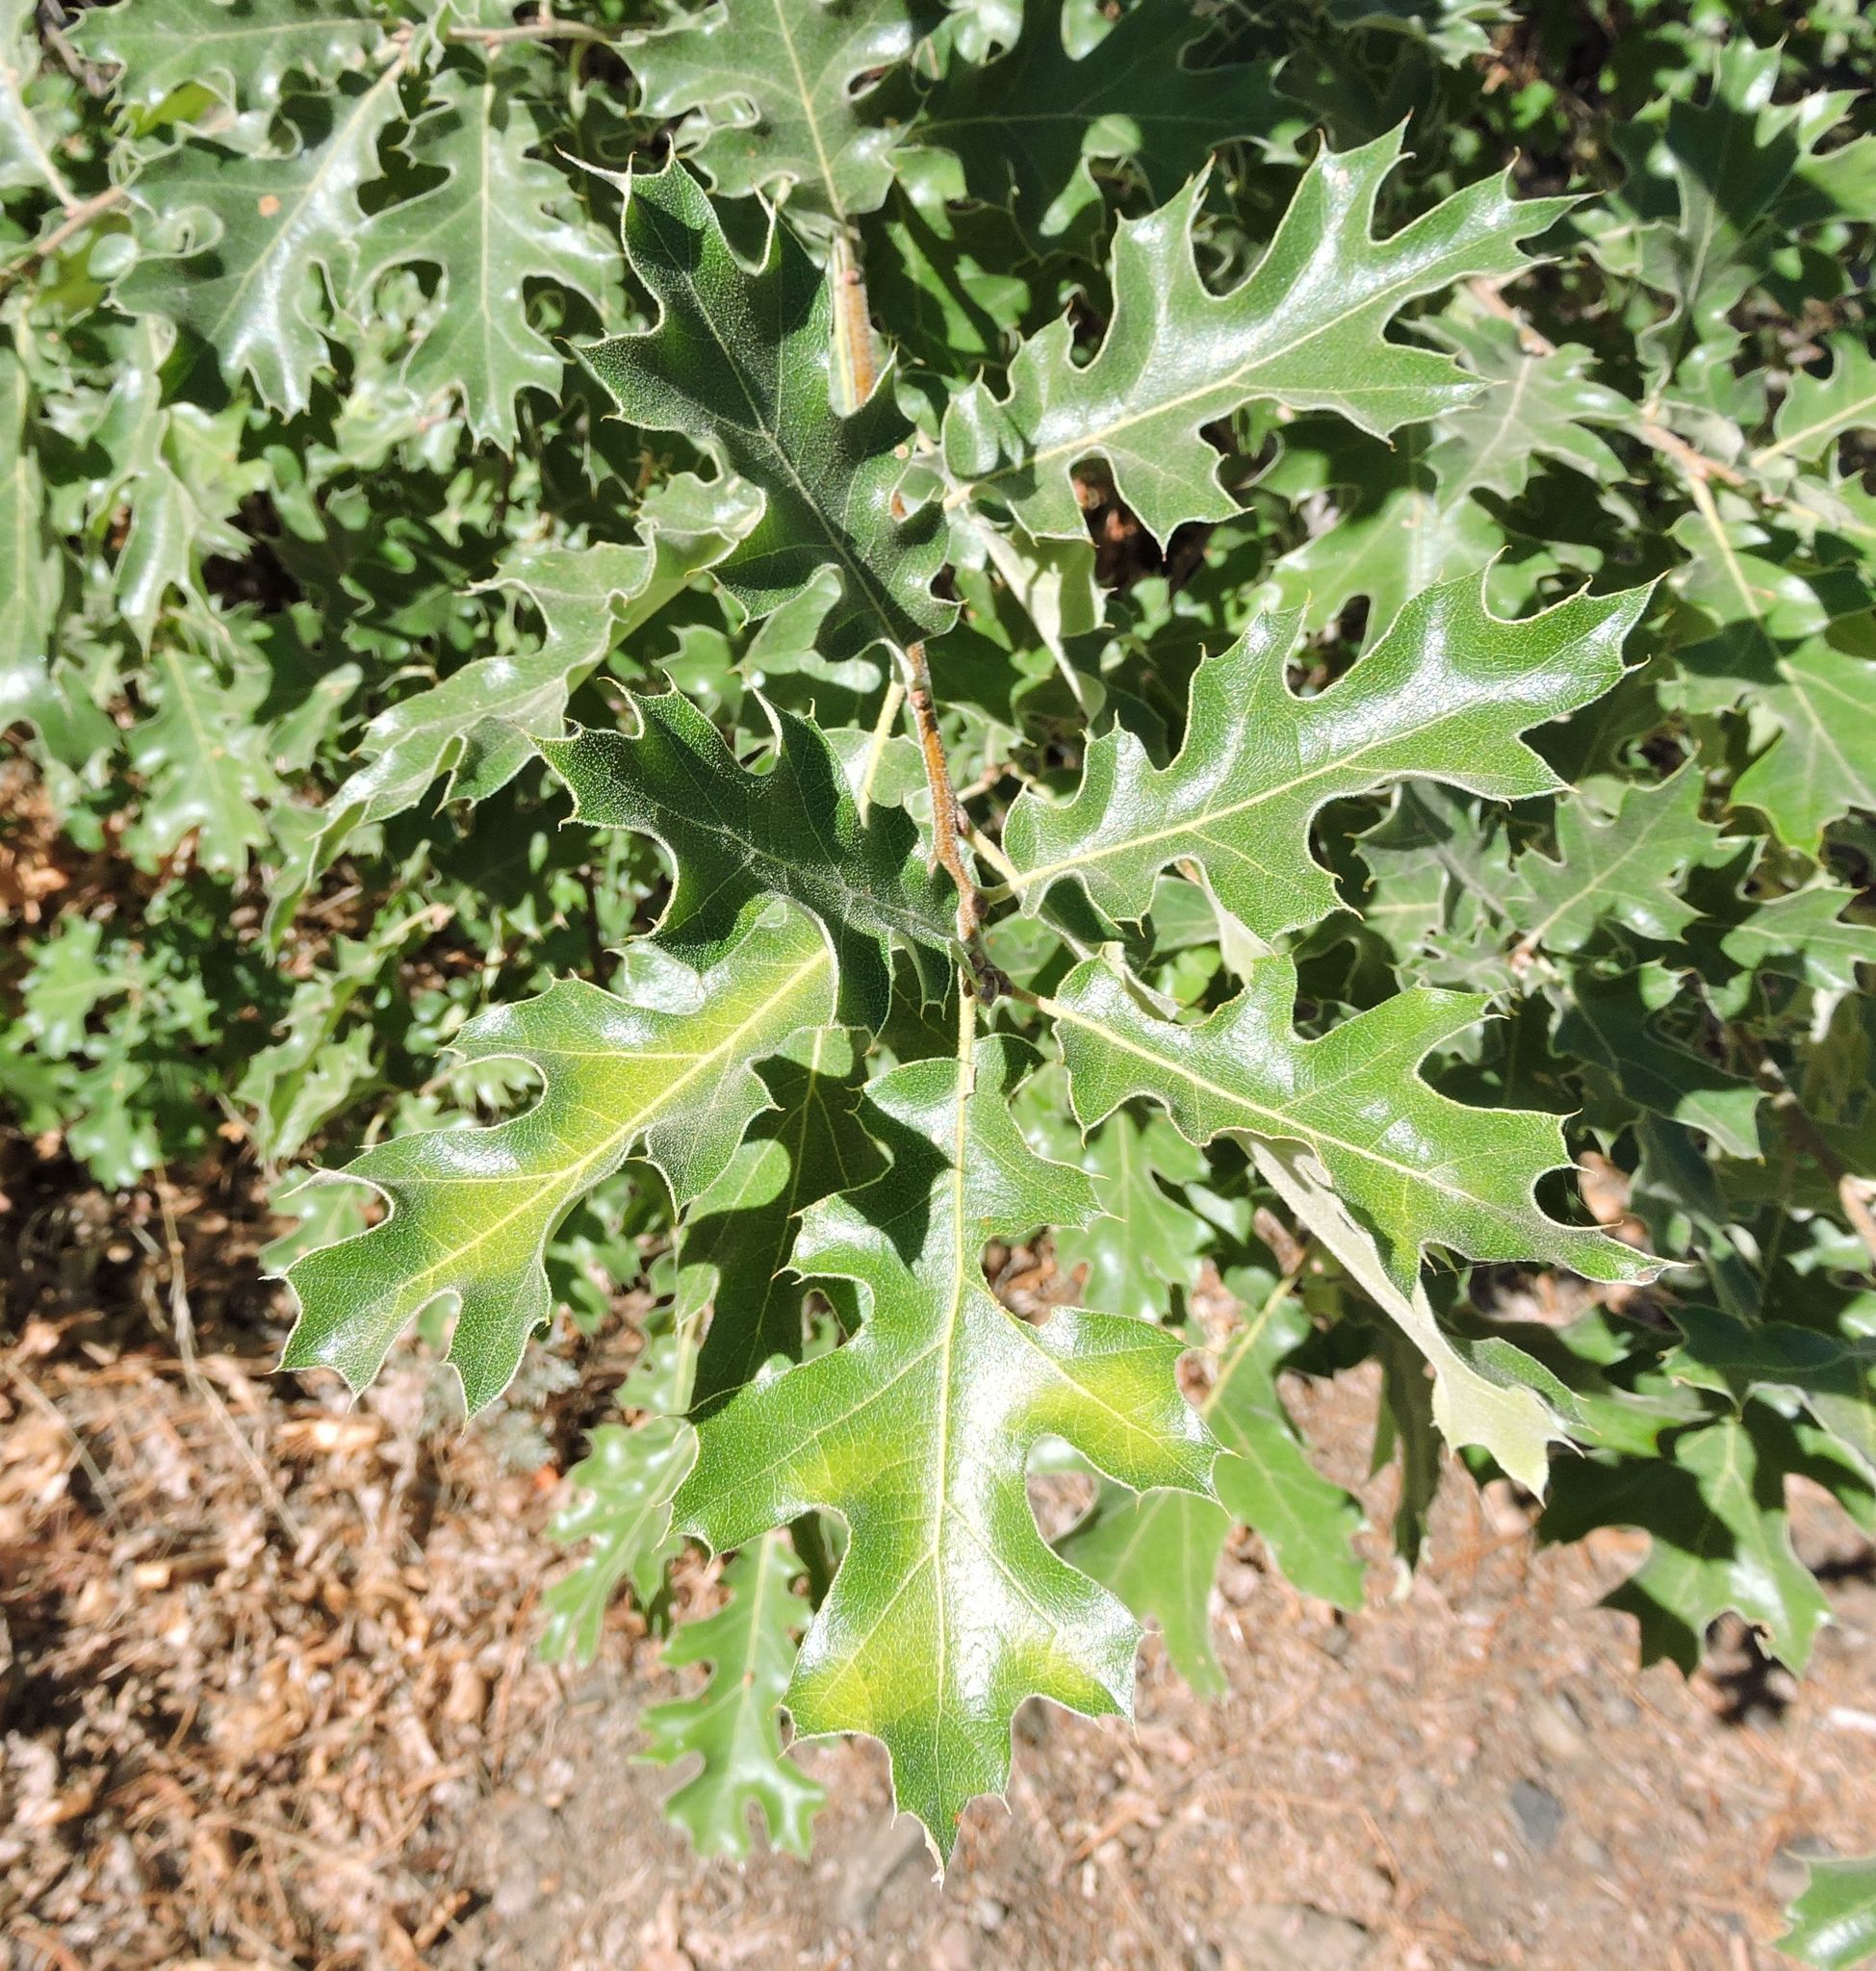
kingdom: Plantae
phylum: Tracheophyta
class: Magnoliopsida
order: Fagales
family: Fagaceae
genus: Quercus
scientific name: Quercus kelloggii
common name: California black oak
